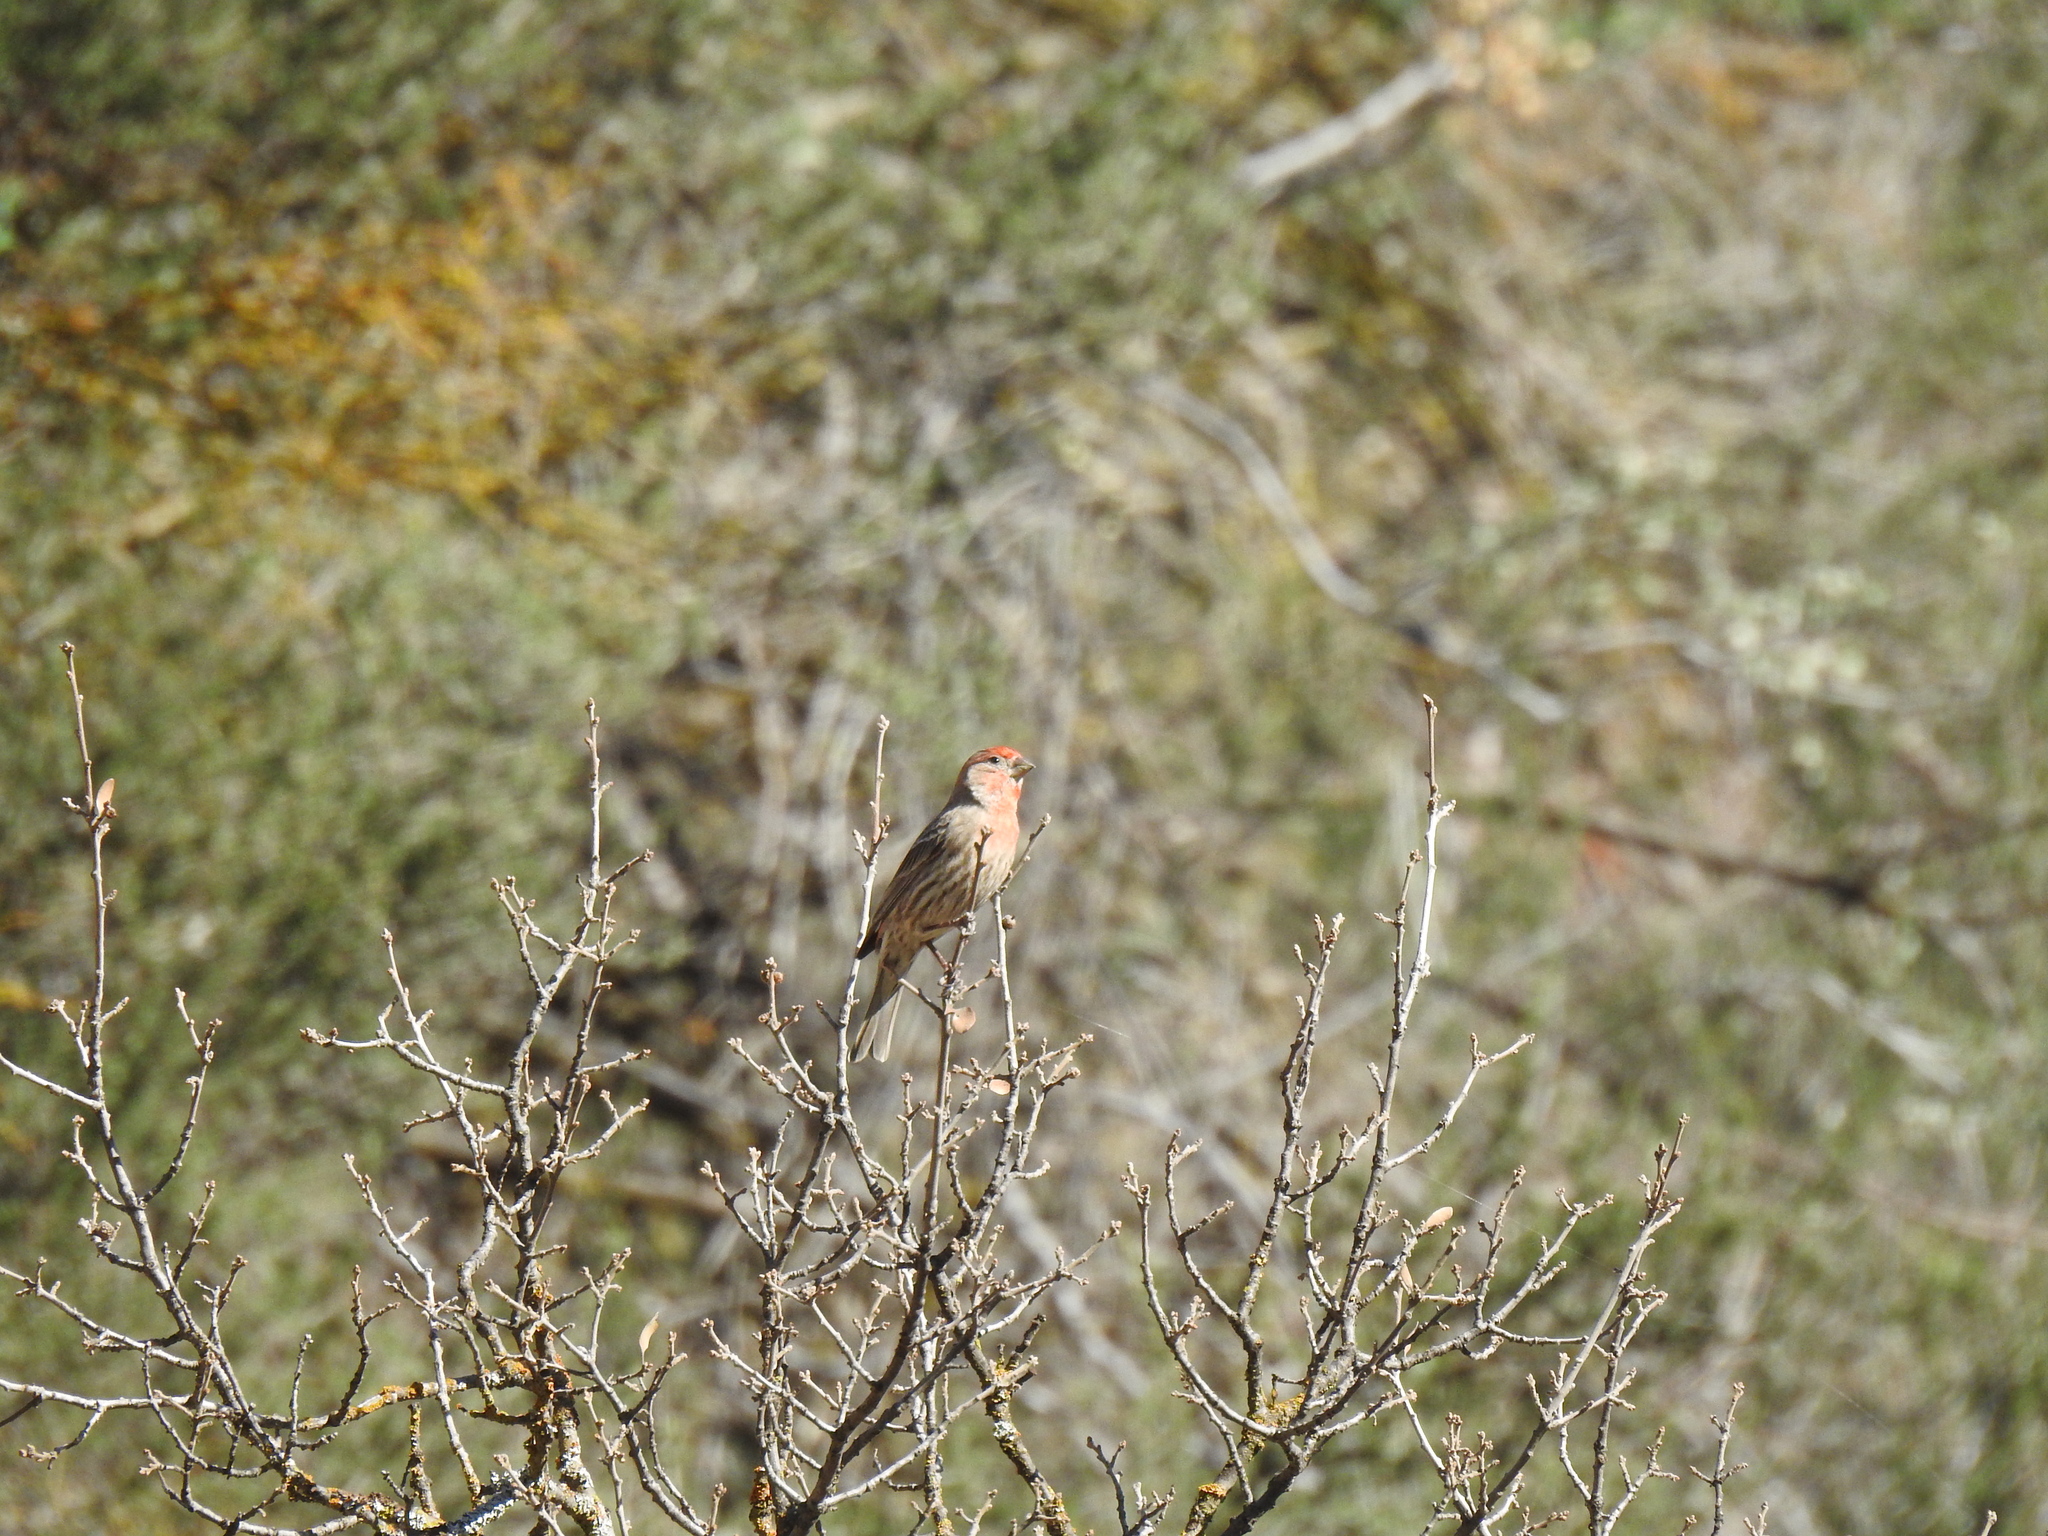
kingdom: Animalia
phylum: Chordata
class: Aves
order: Passeriformes
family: Fringillidae
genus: Haemorhous
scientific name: Haemorhous mexicanus
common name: House finch
